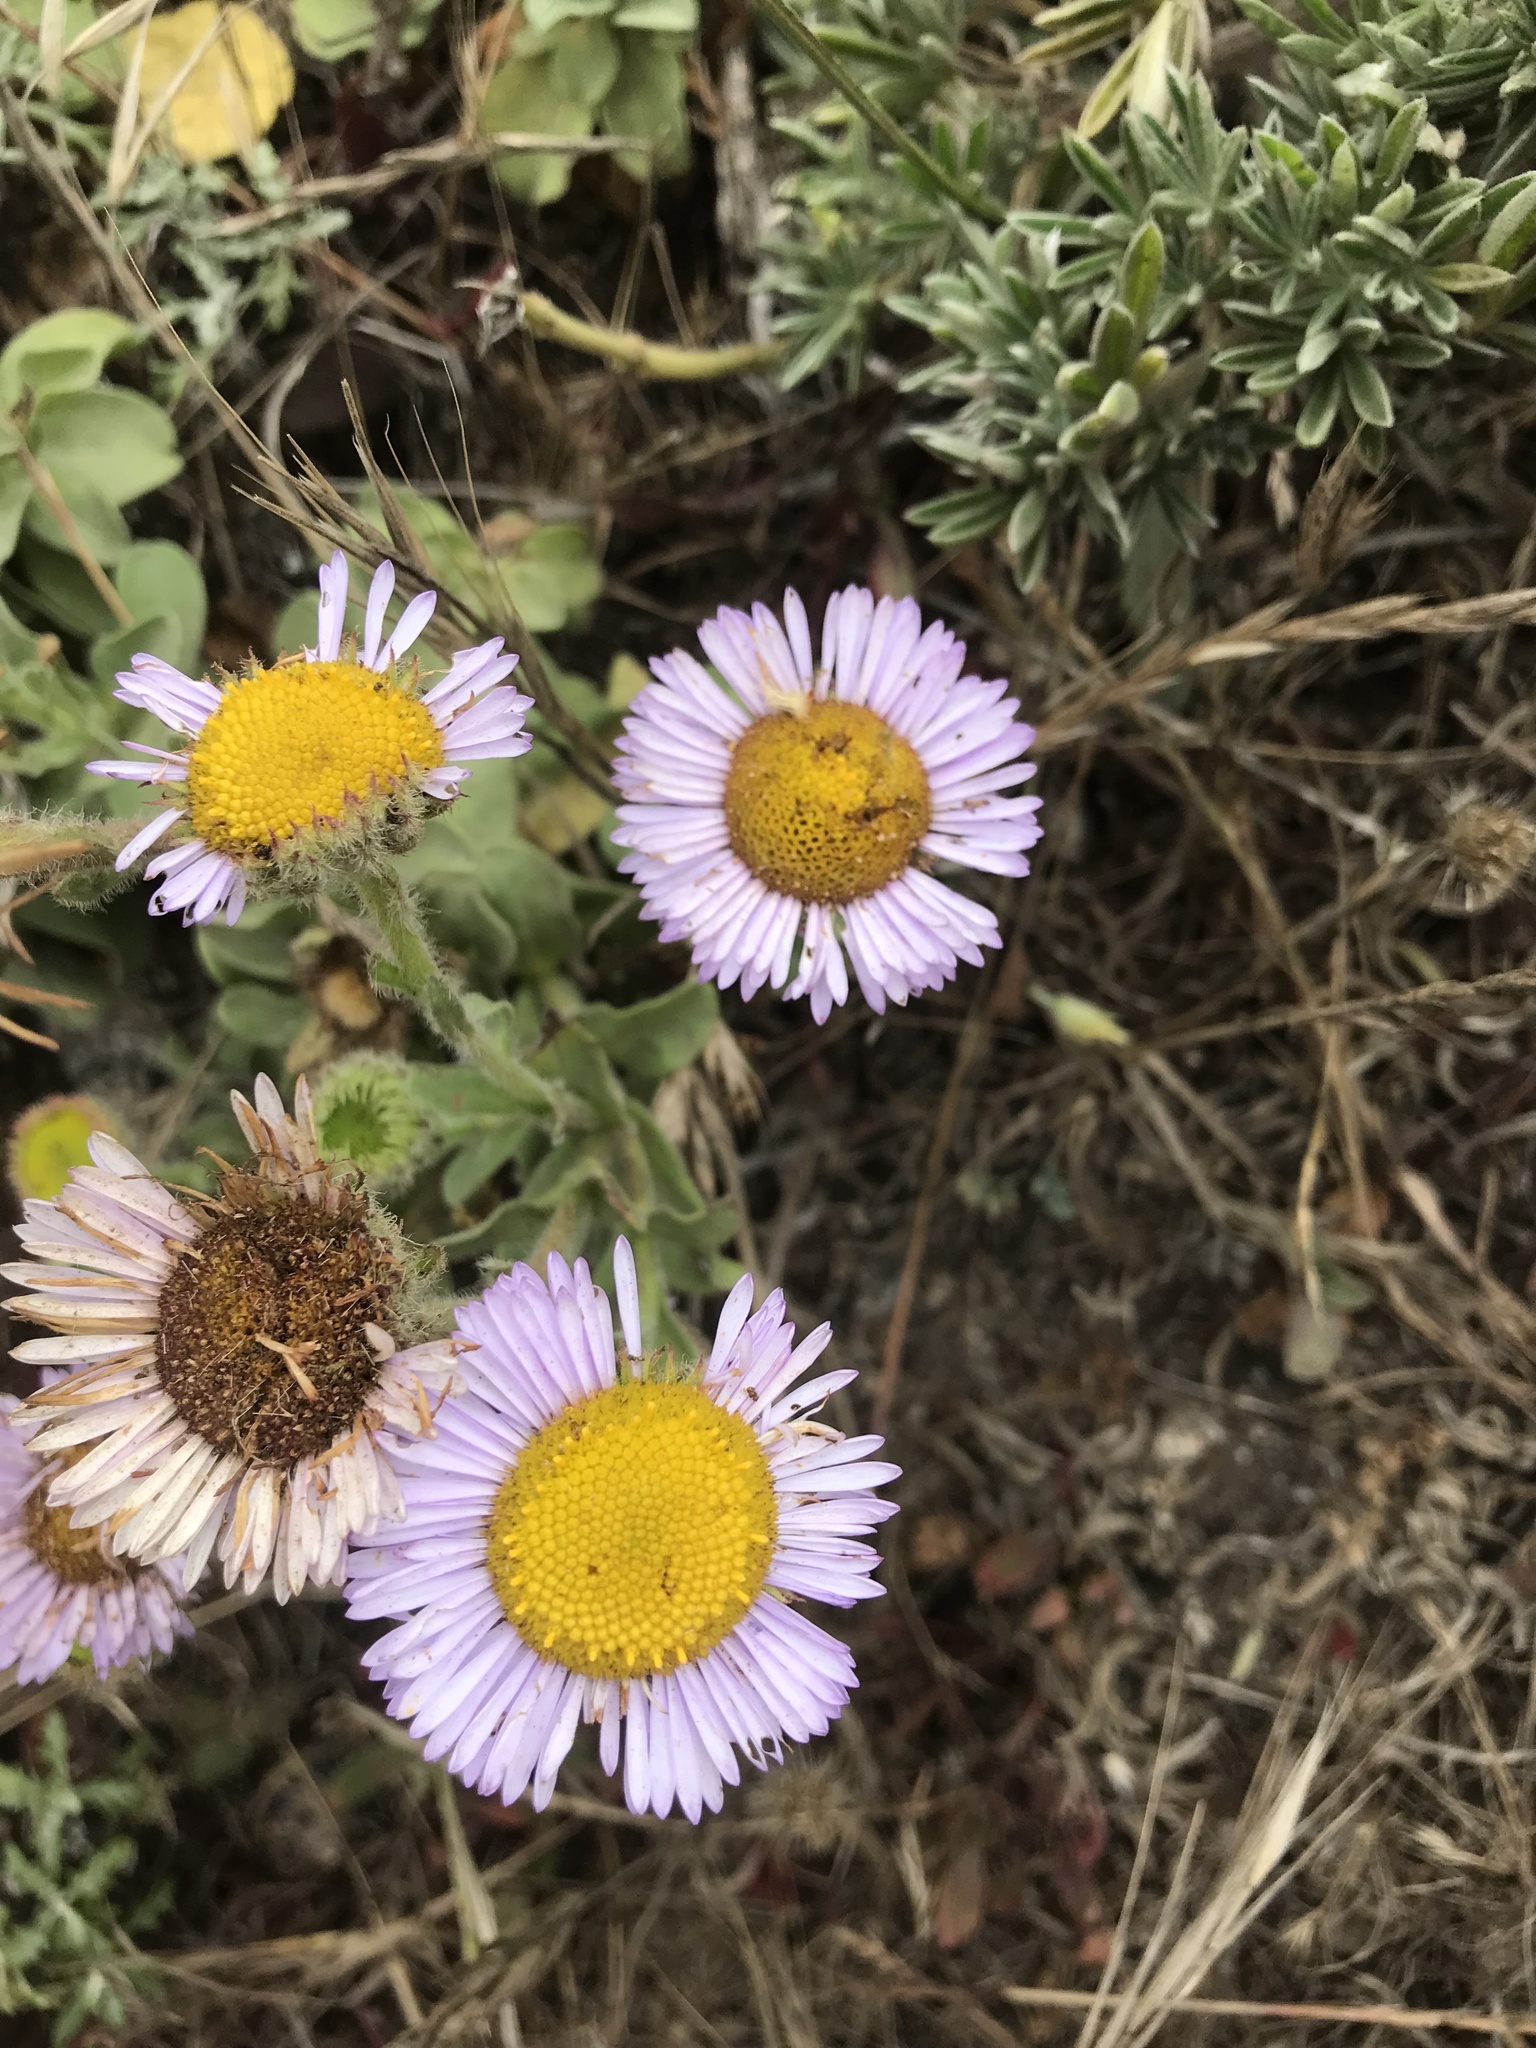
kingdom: Plantae
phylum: Tracheophyta
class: Magnoliopsida
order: Asterales
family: Asteraceae
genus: Erigeron
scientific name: Erigeron glaucus
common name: Seaside daisy
